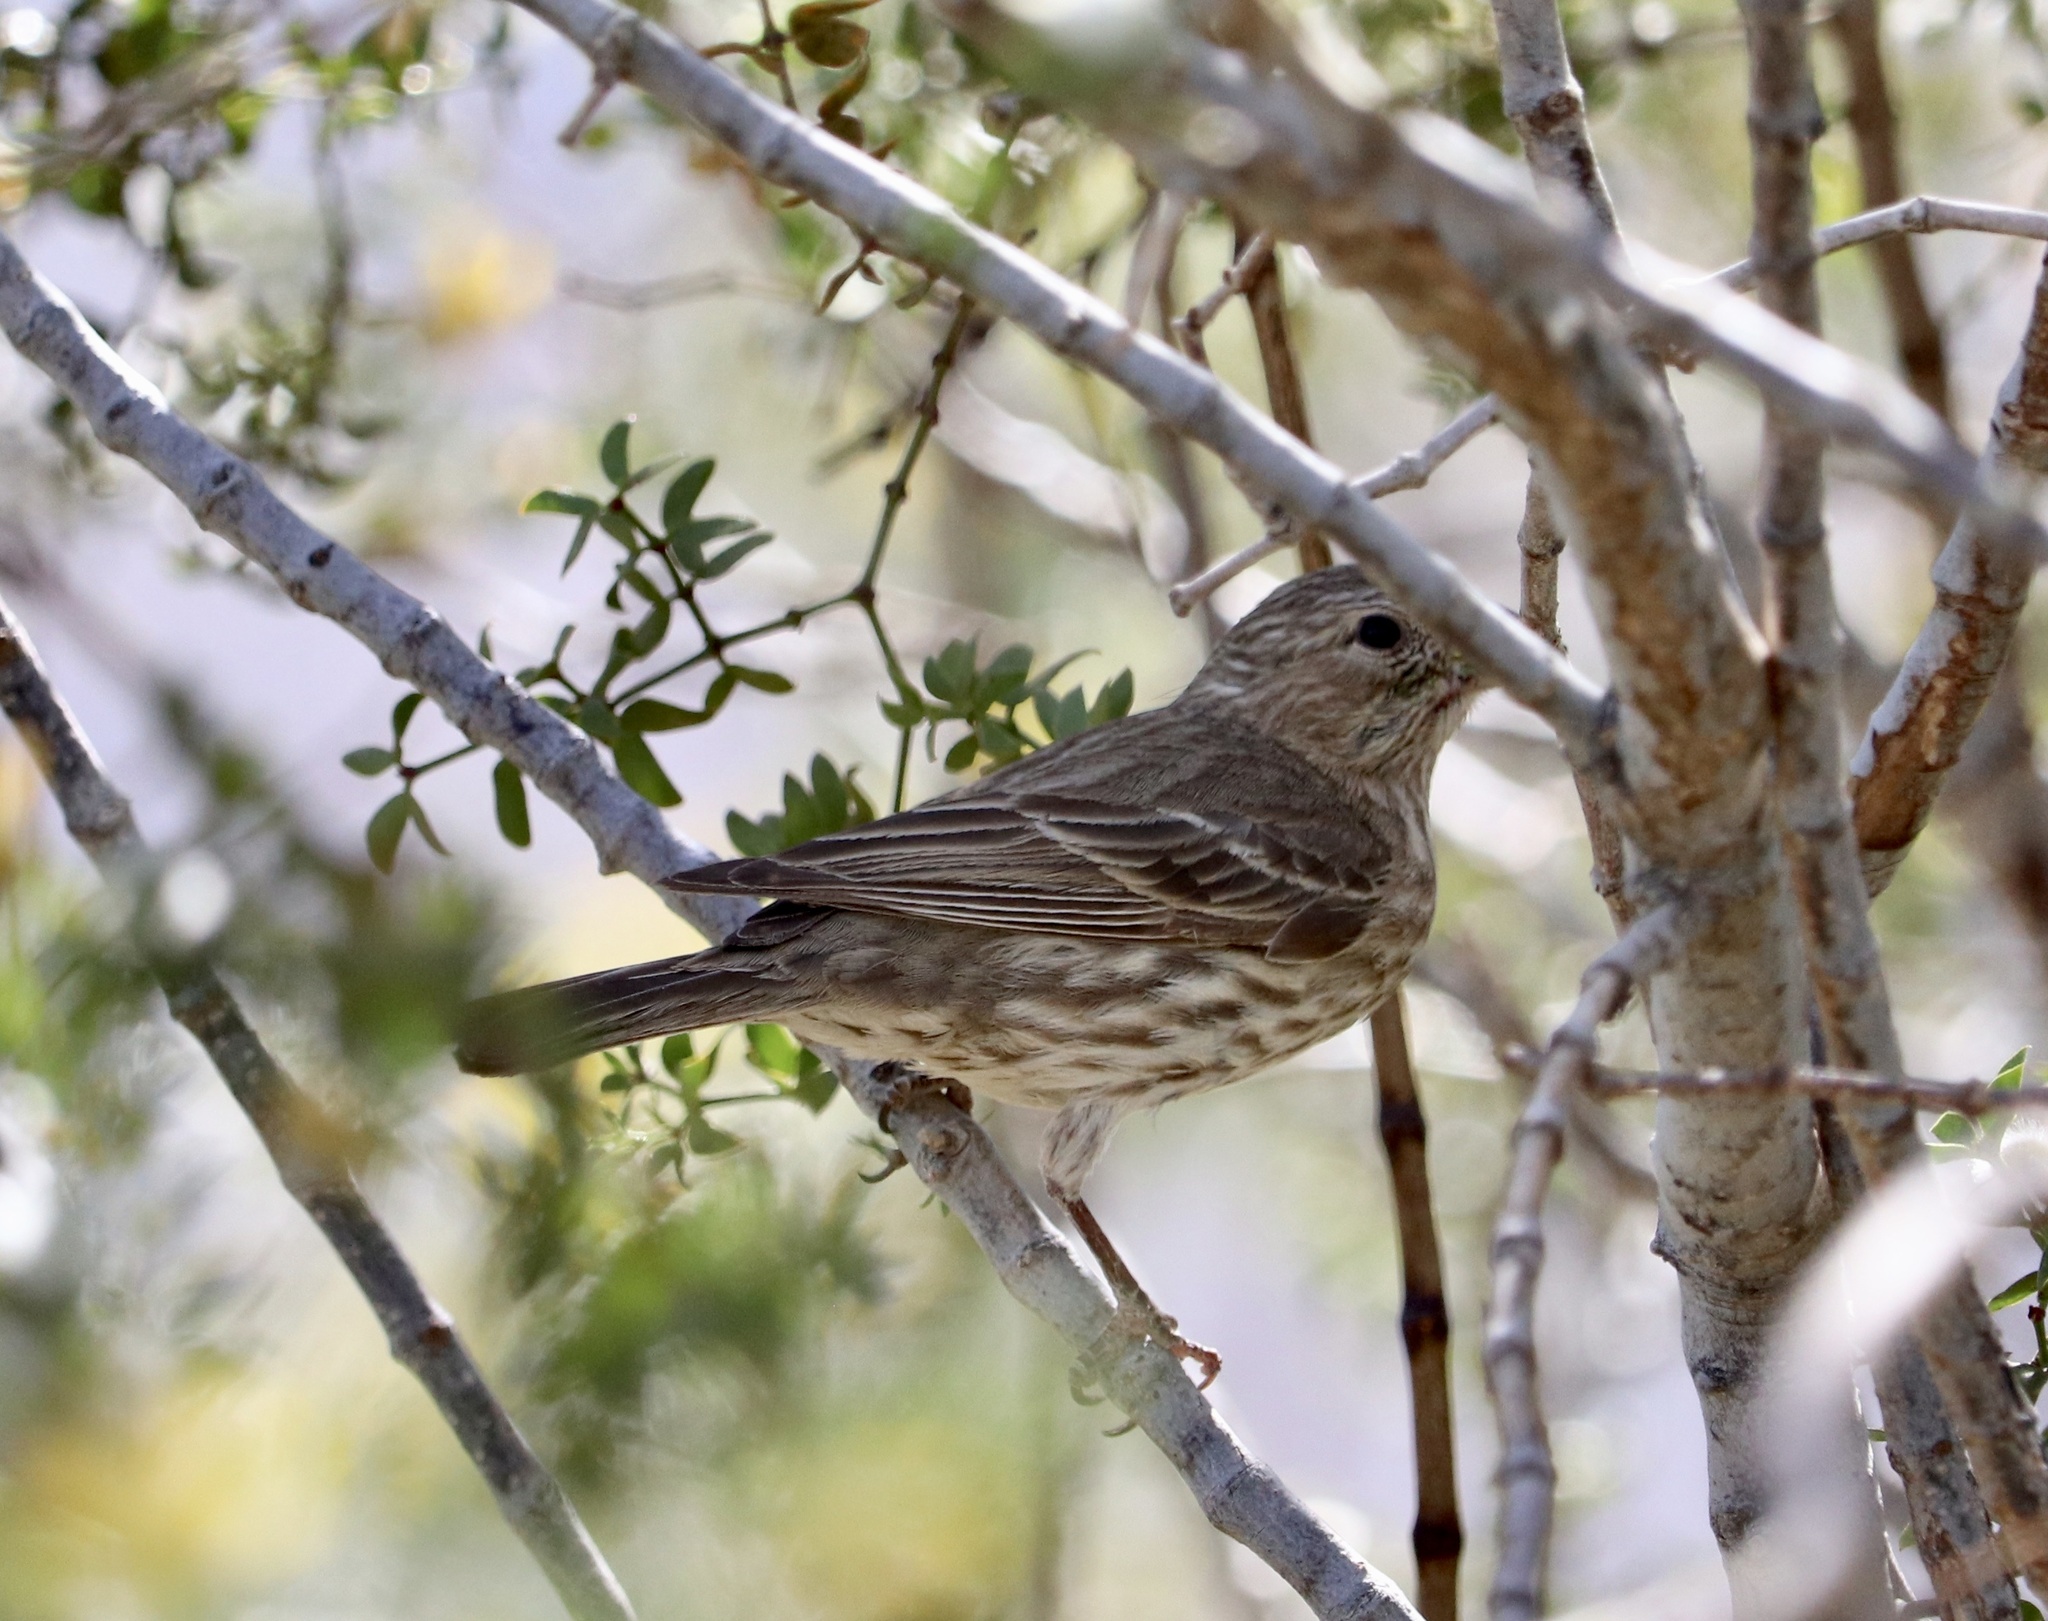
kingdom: Animalia
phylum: Chordata
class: Aves
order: Passeriformes
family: Fringillidae
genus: Haemorhous
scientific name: Haemorhous mexicanus
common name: House finch
